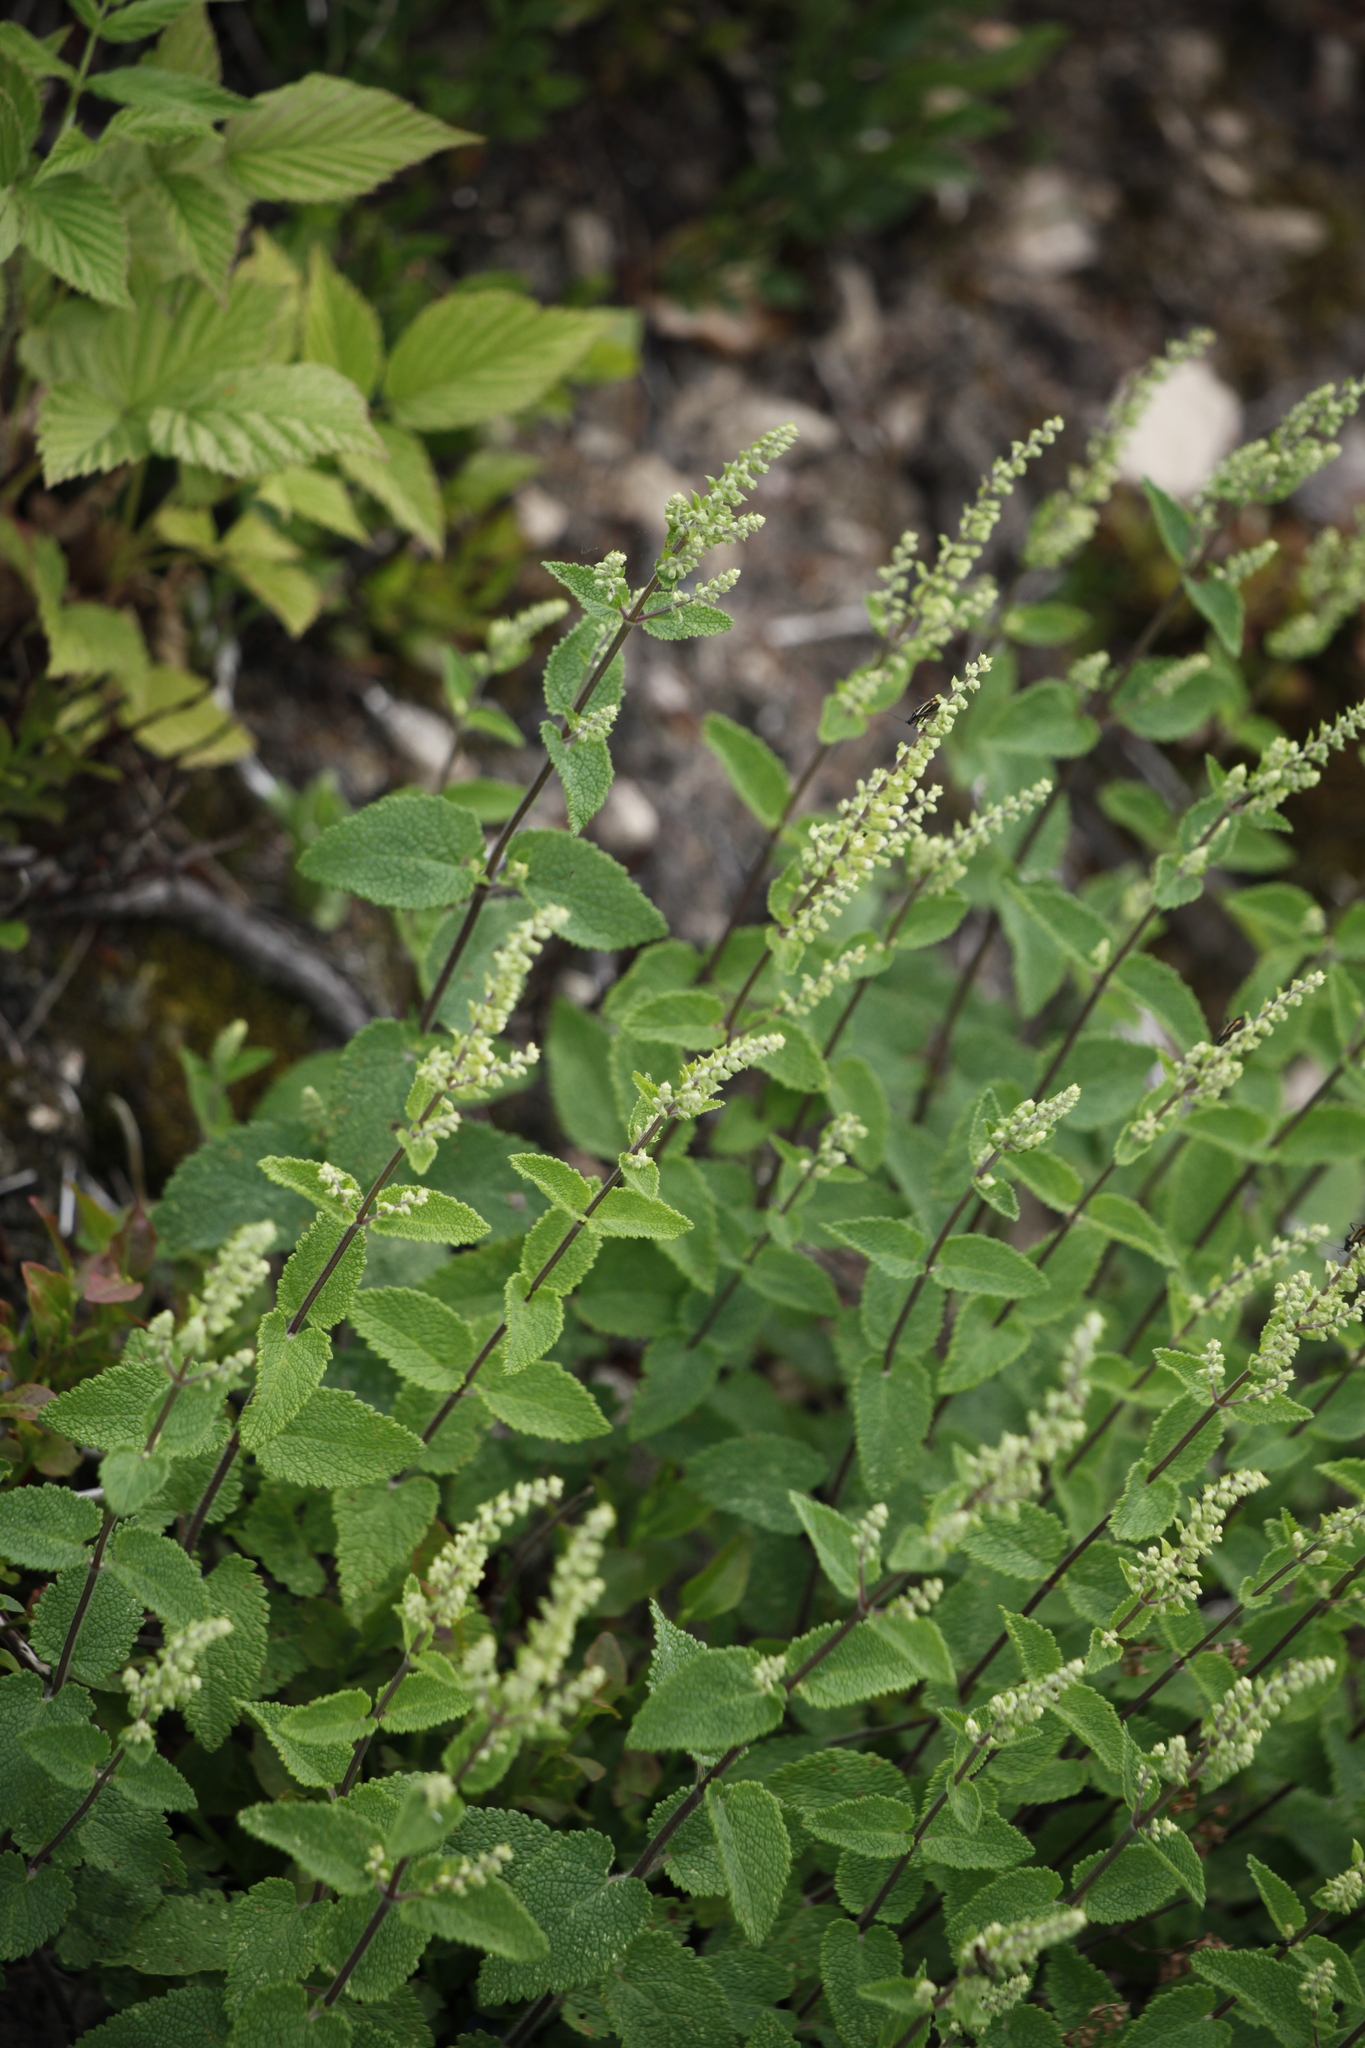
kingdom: Plantae
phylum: Tracheophyta
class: Magnoliopsida
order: Lamiales
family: Lamiaceae
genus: Teucrium
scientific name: Teucrium scorodonia
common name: Woodland germander
